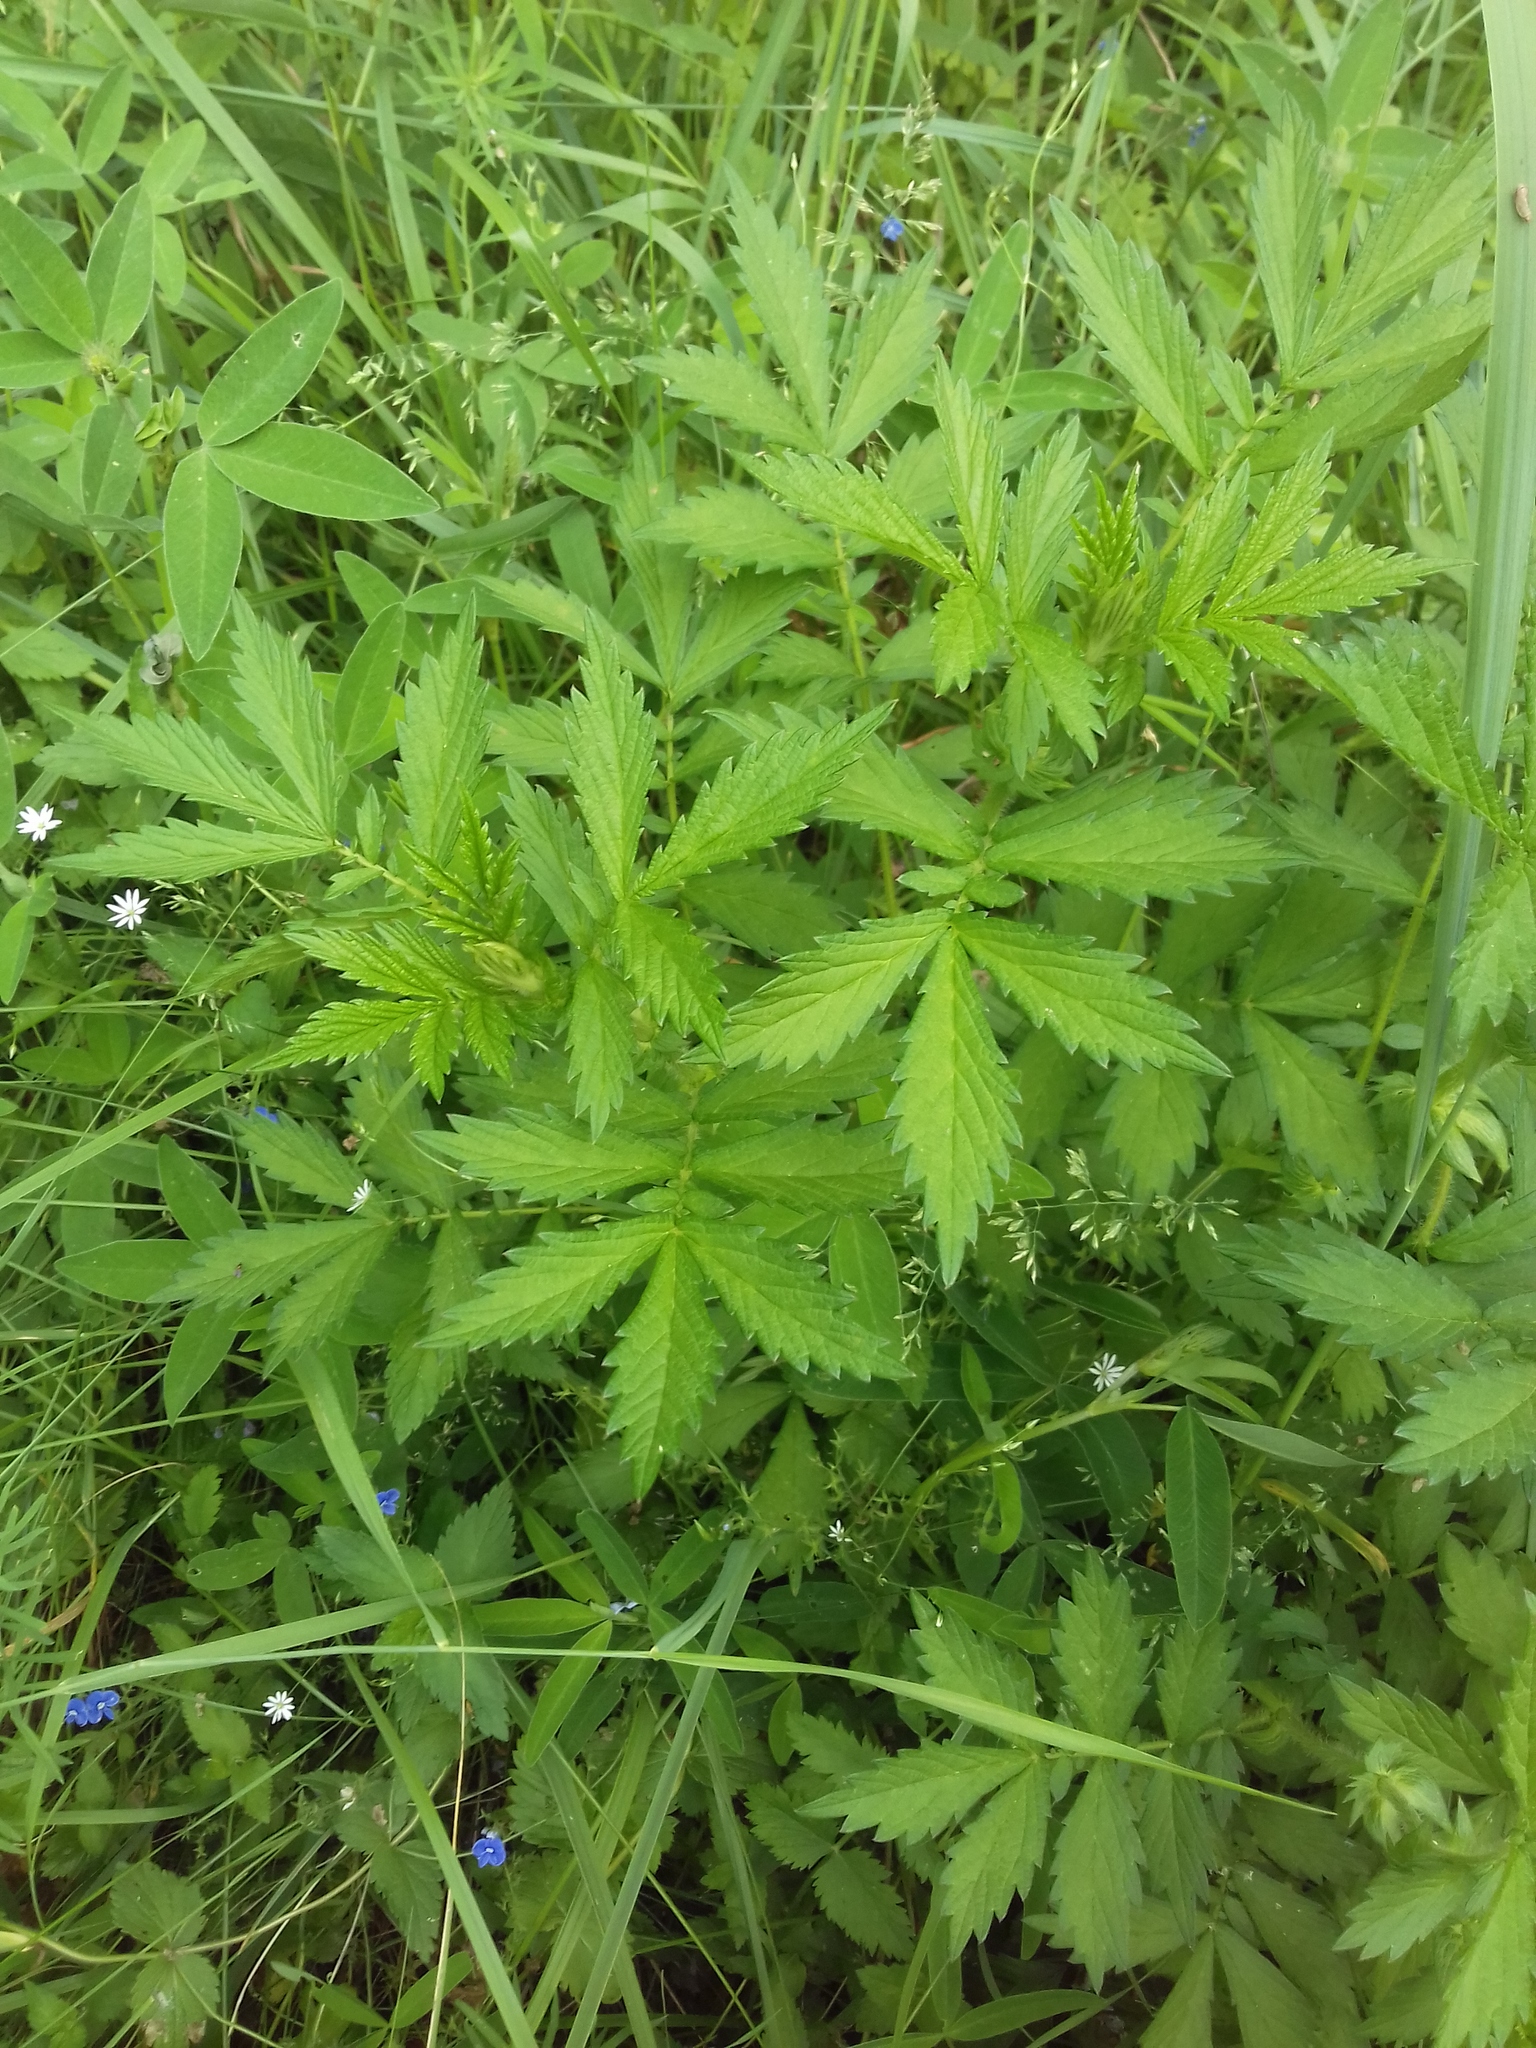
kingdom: Plantae
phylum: Tracheophyta
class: Magnoliopsida
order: Rosales
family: Rosaceae
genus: Agrimonia
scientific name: Agrimonia pilosa
